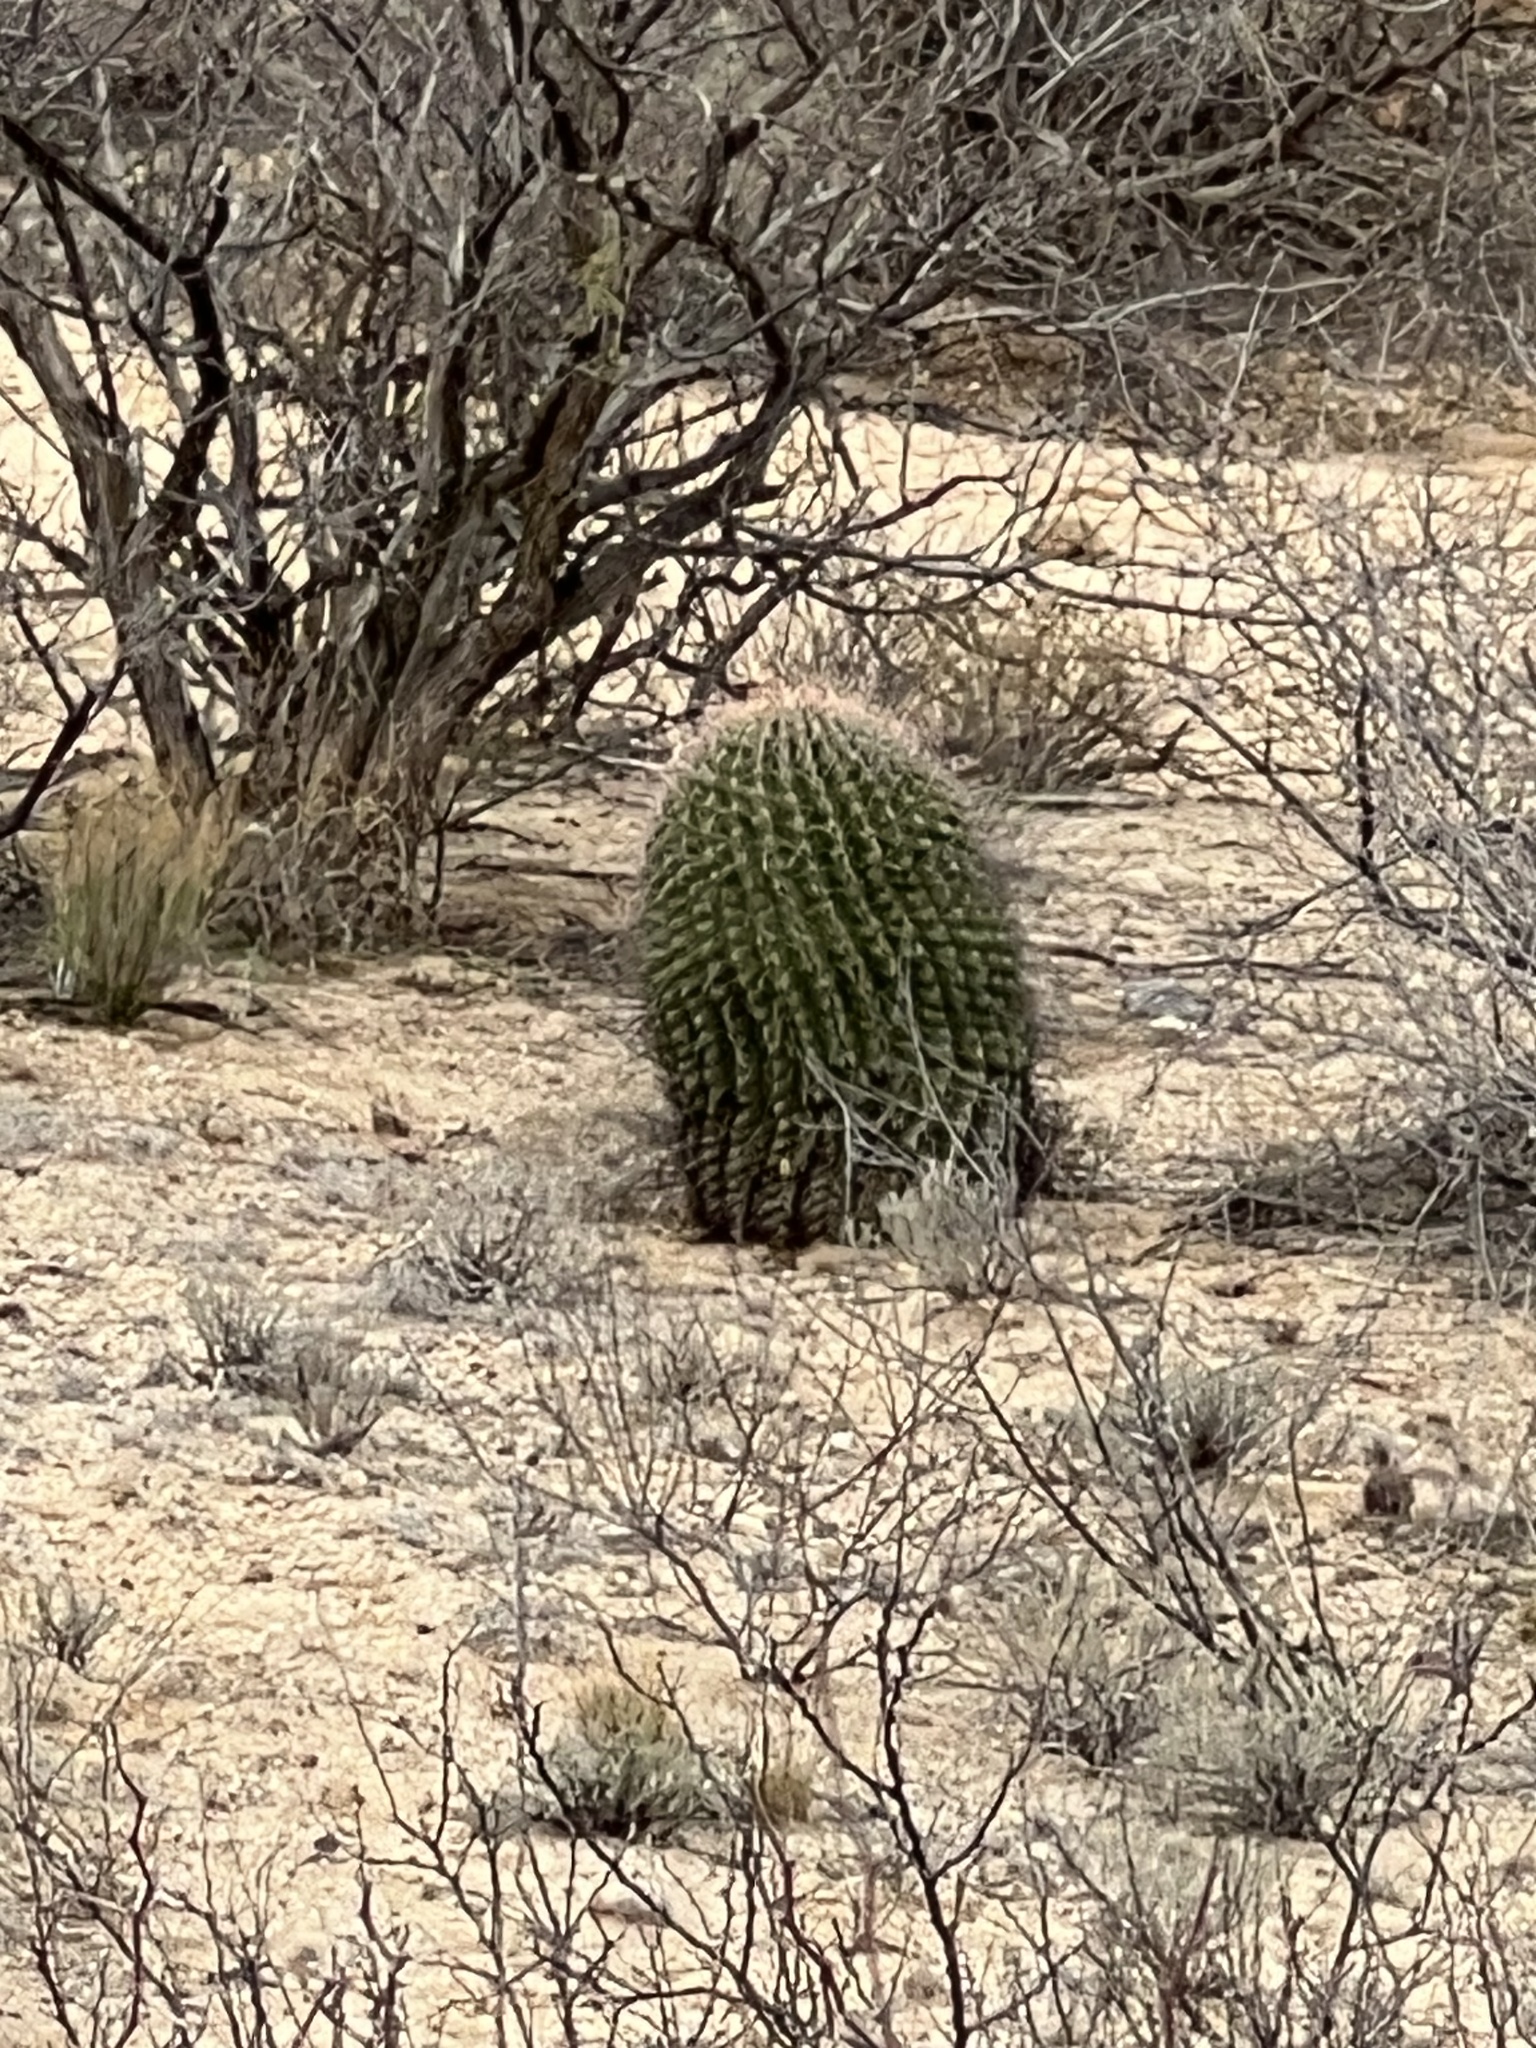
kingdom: Plantae
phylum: Tracheophyta
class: Magnoliopsida
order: Caryophyllales
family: Cactaceae
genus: Ferocactus
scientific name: Ferocactus wislizeni
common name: Candy barrel cactus
